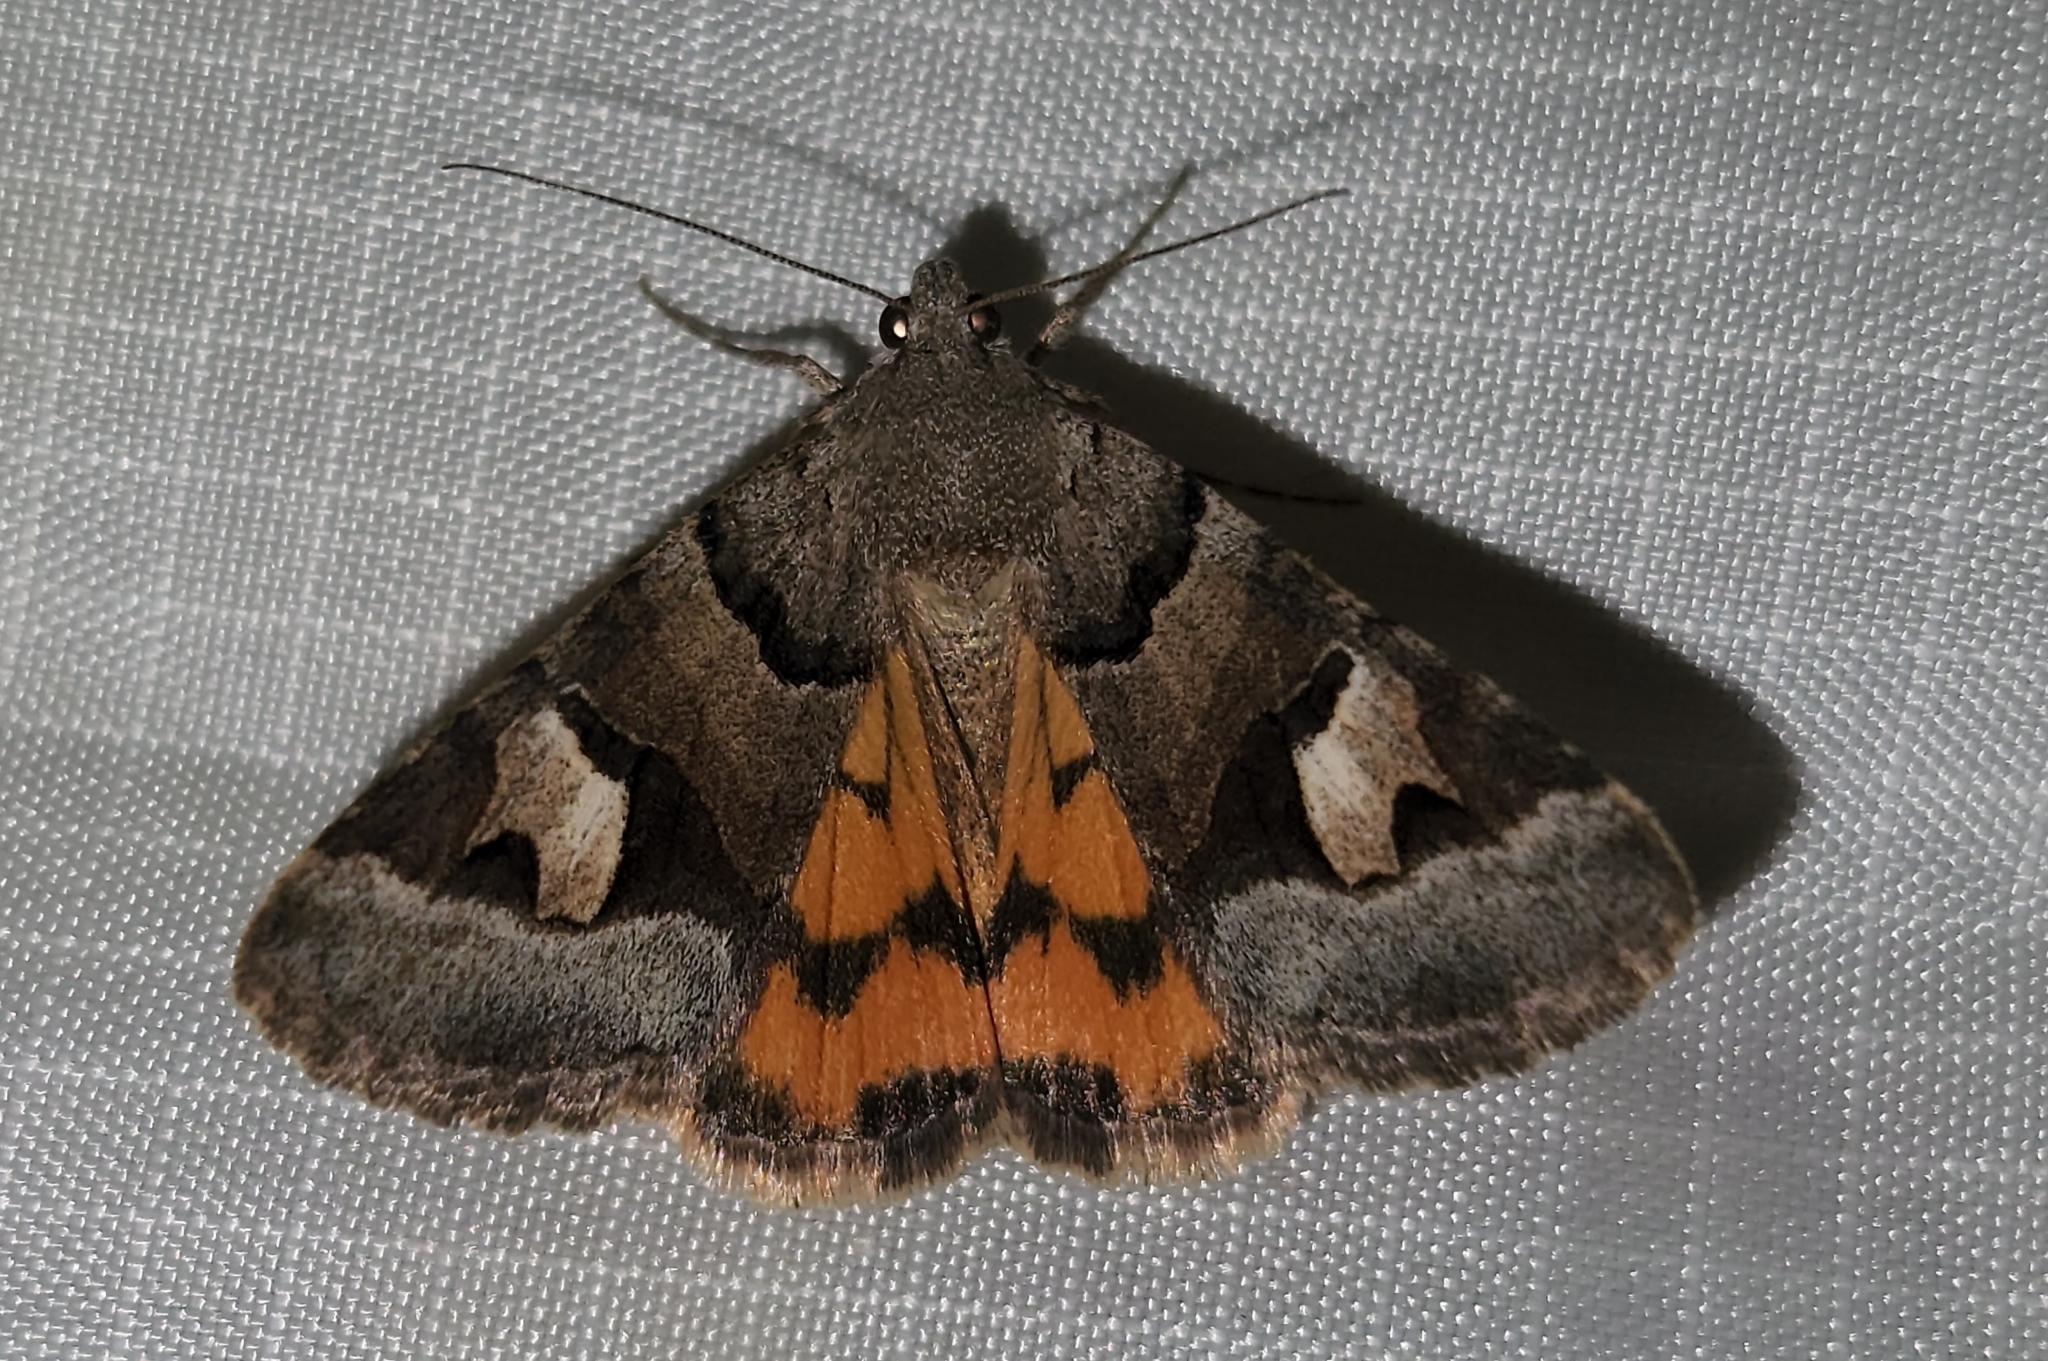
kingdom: Animalia
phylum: Arthropoda
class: Insecta
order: Lepidoptera
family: Erebidae
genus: Drasteria
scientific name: Drasteria stretchii
